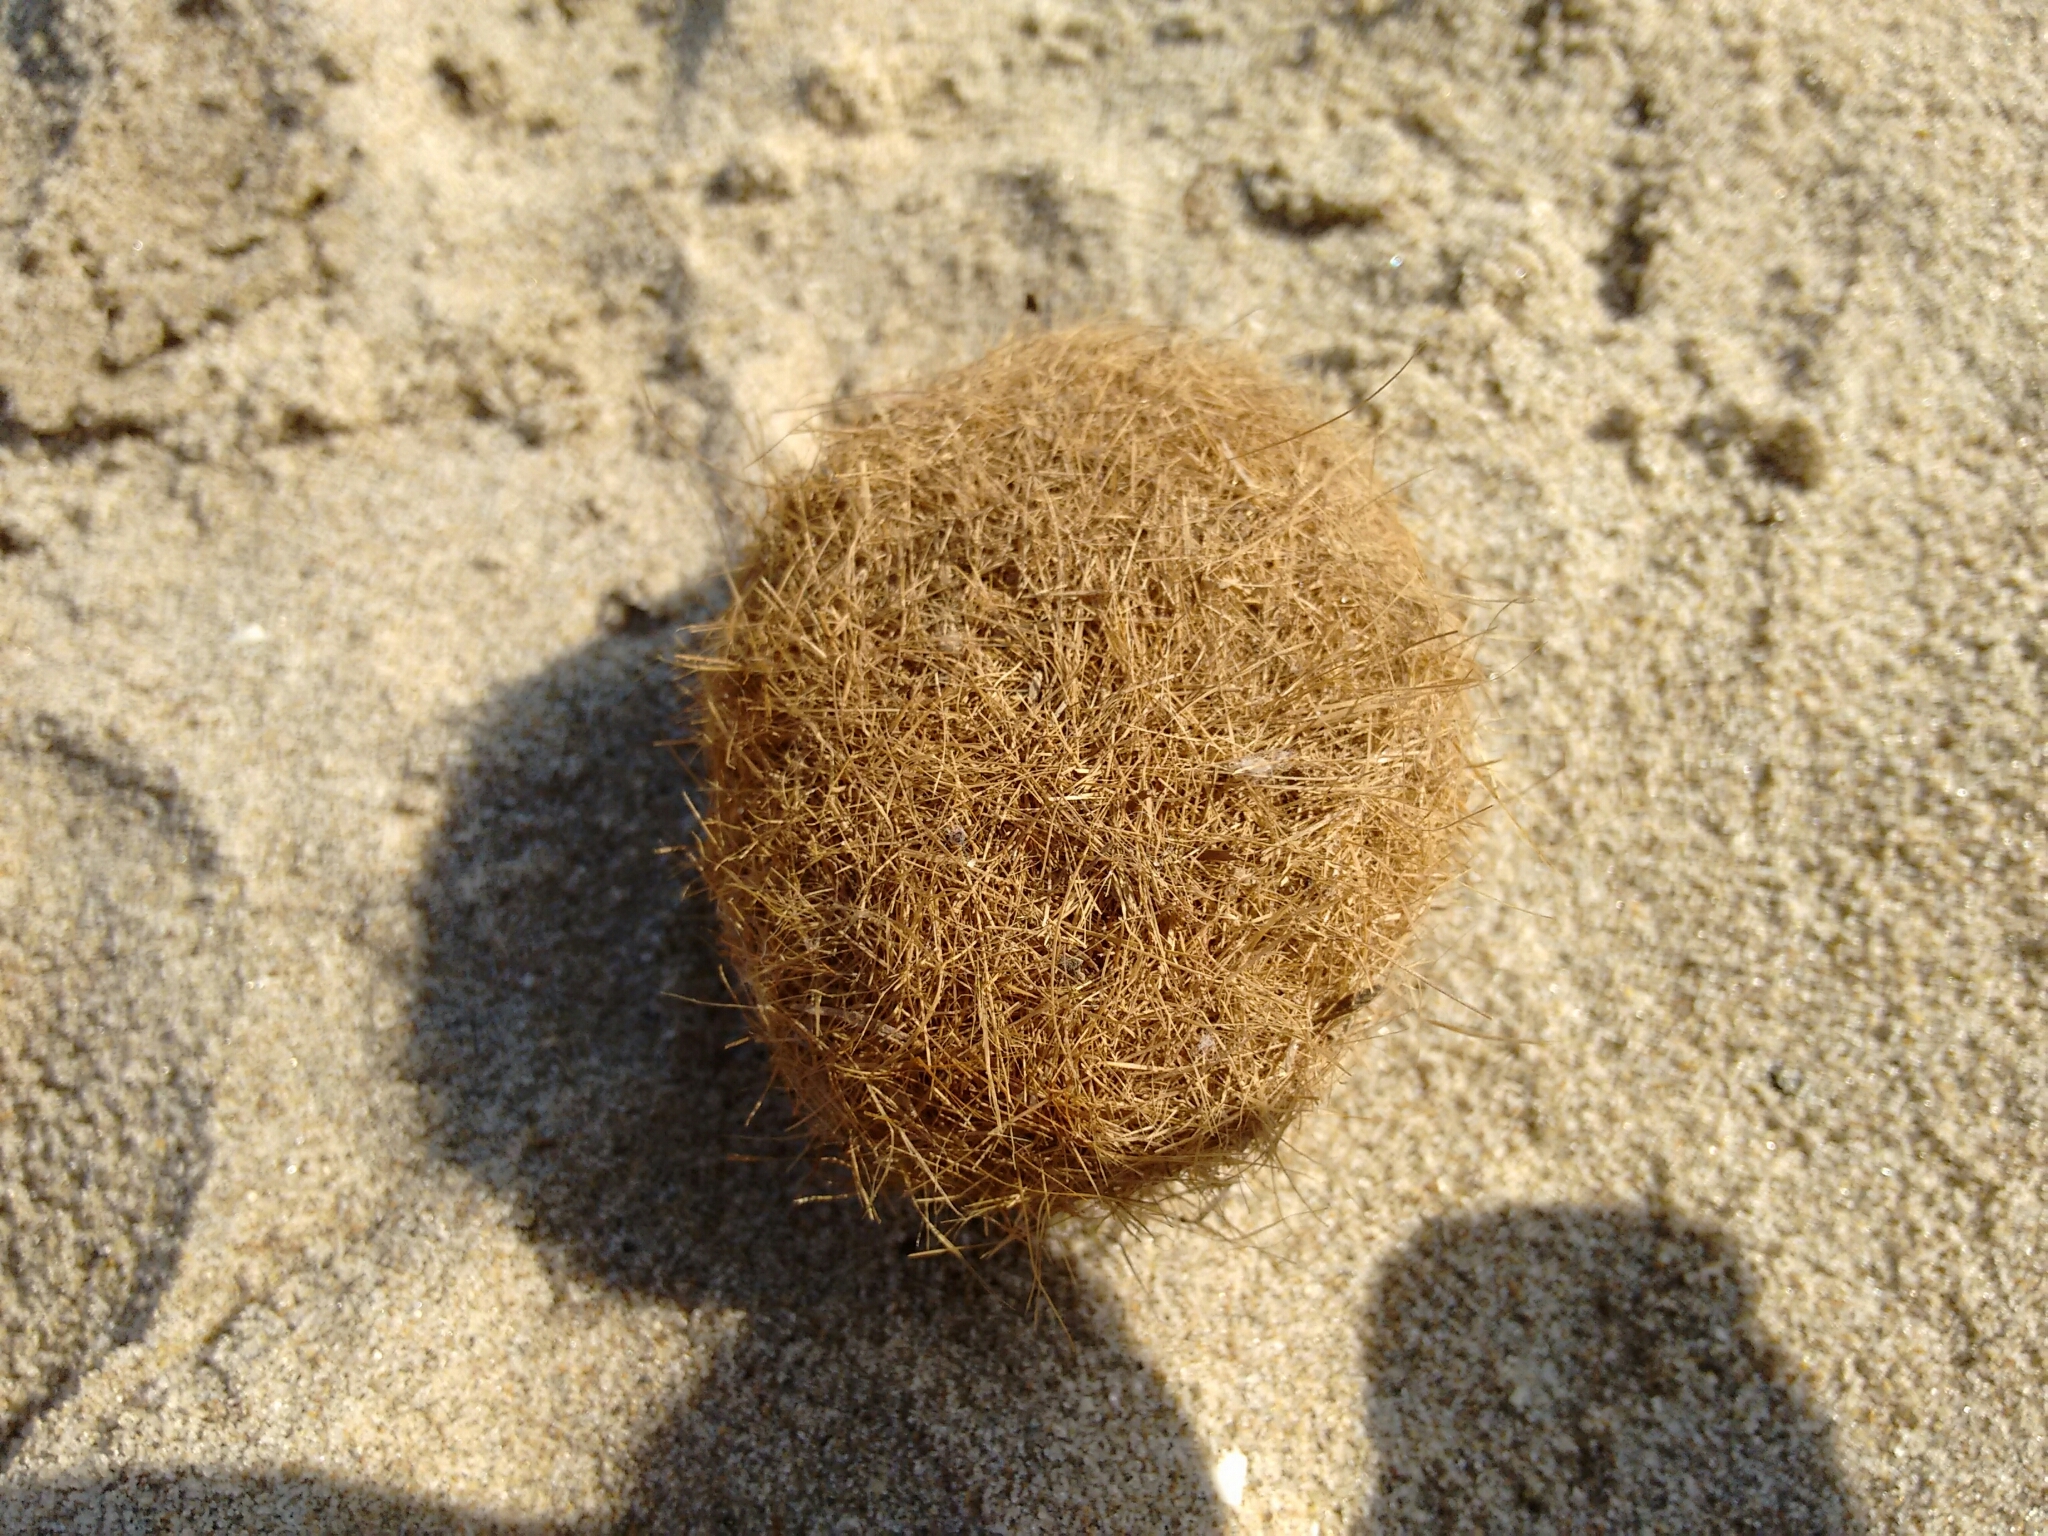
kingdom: Plantae
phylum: Tracheophyta
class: Liliopsida
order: Alismatales
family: Posidoniaceae
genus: Posidonia
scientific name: Posidonia oceanica
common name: Mediterranean tapeweed
